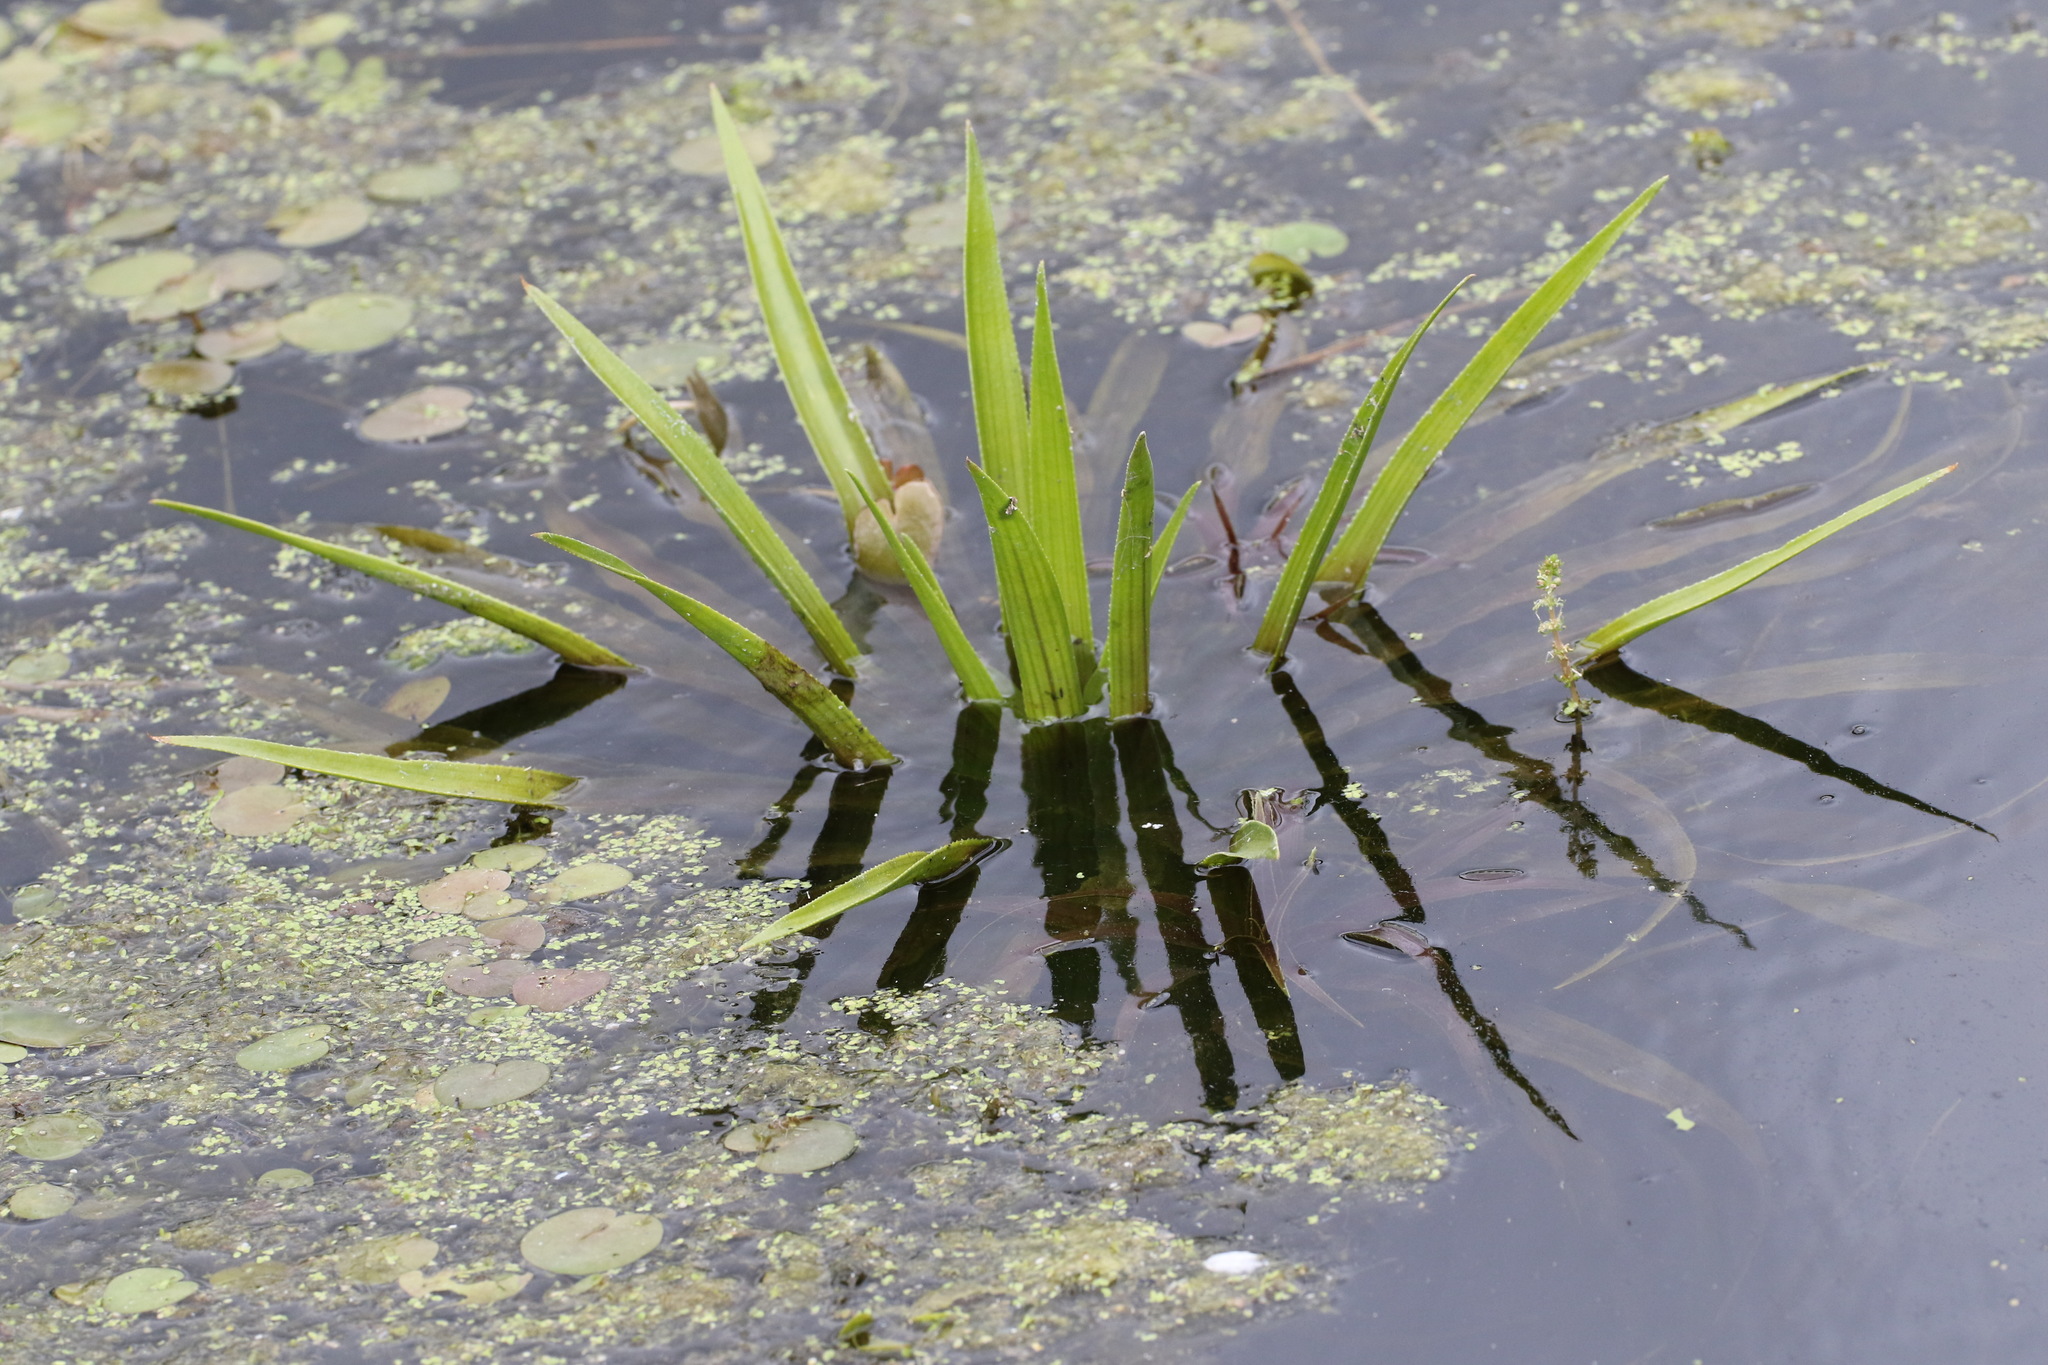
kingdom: Plantae
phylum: Tracheophyta
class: Liliopsida
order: Alismatales
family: Hydrocharitaceae
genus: Stratiotes
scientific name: Stratiotes aloides
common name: Water-soldier
